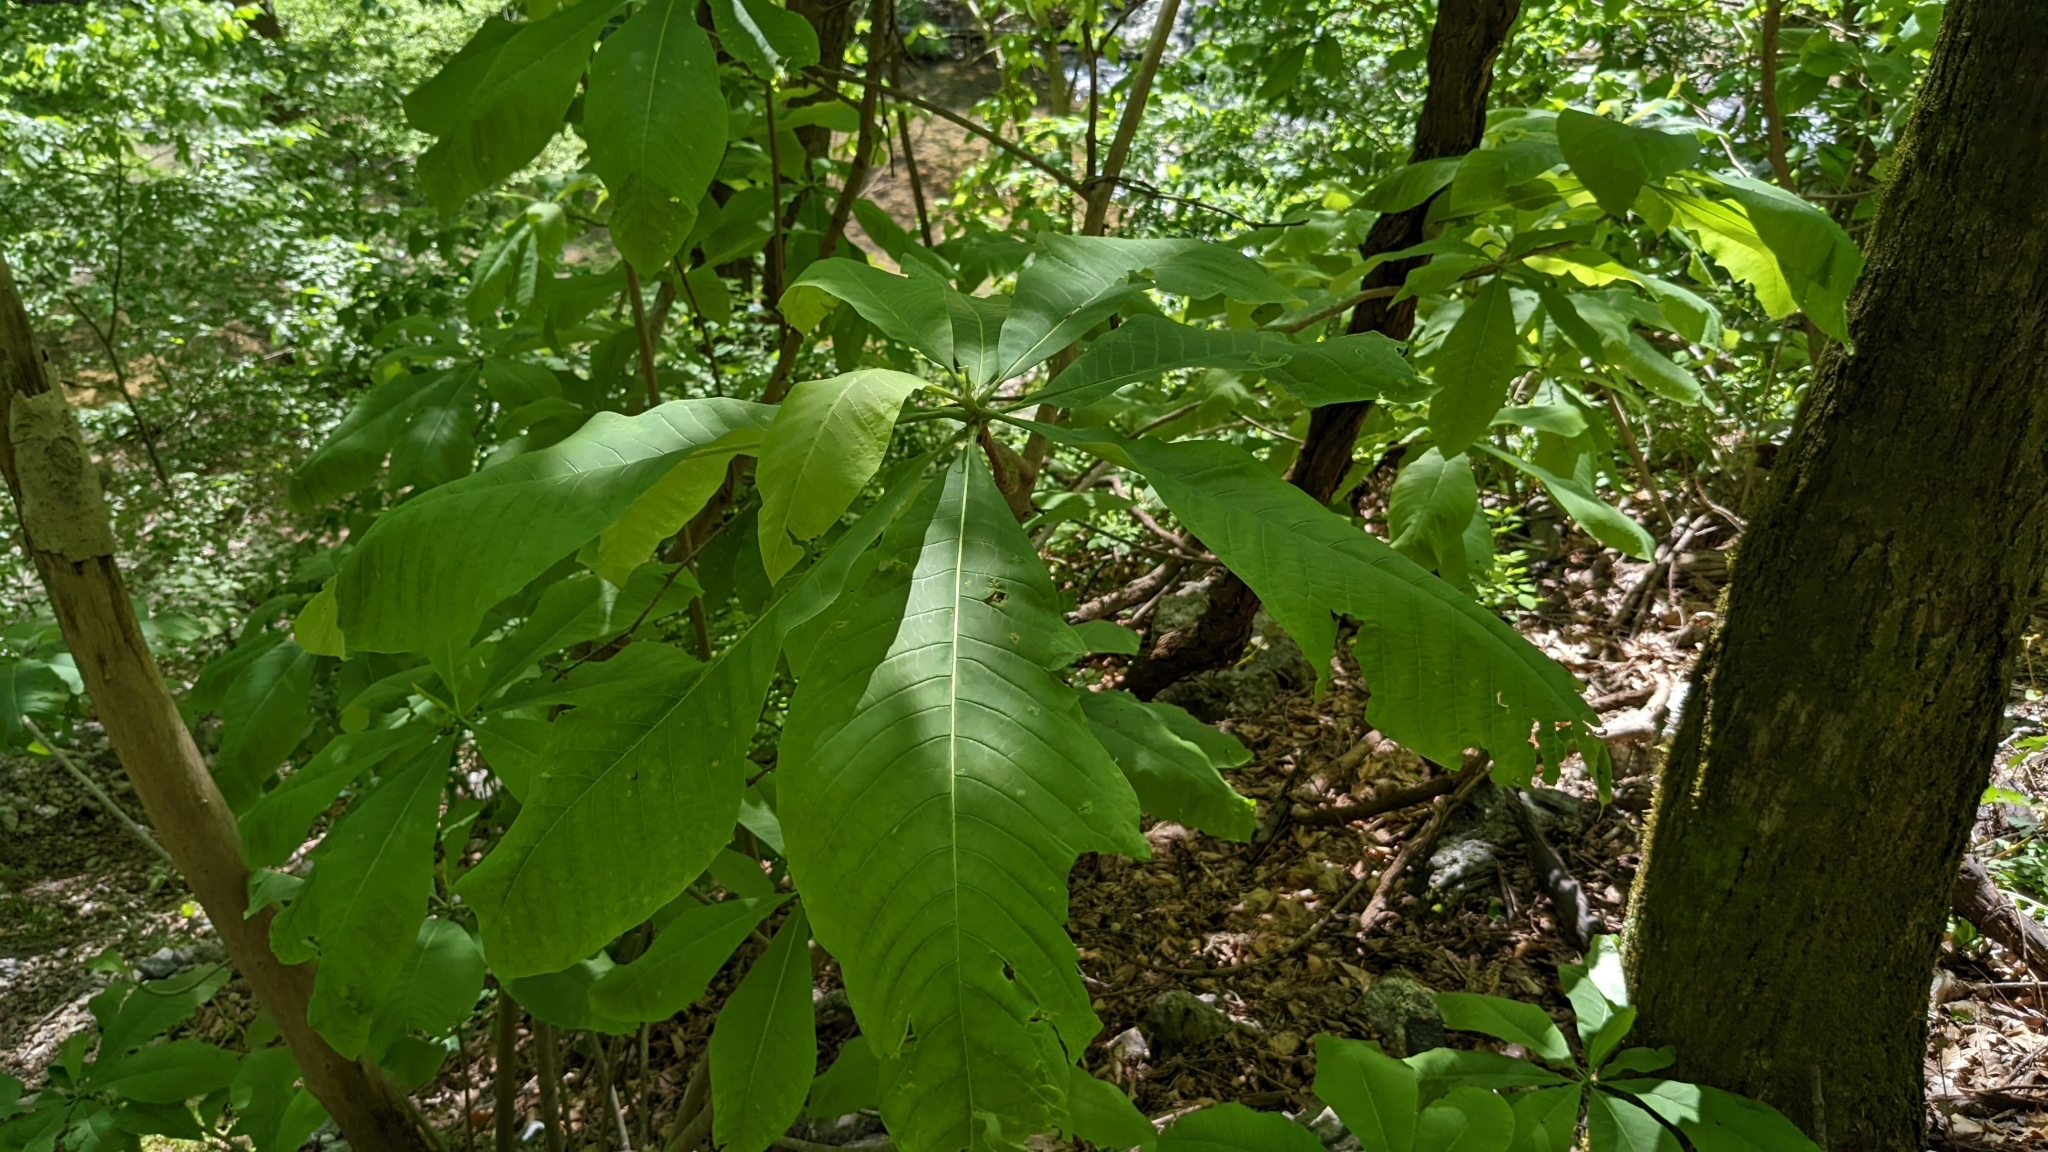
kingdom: Plantae
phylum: Tracheophyta
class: Magnoliopsida
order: Magnoliales
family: Magnoliaceae
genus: Magnolia
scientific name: Magnolia tripetala
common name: Umbrella magnolia
